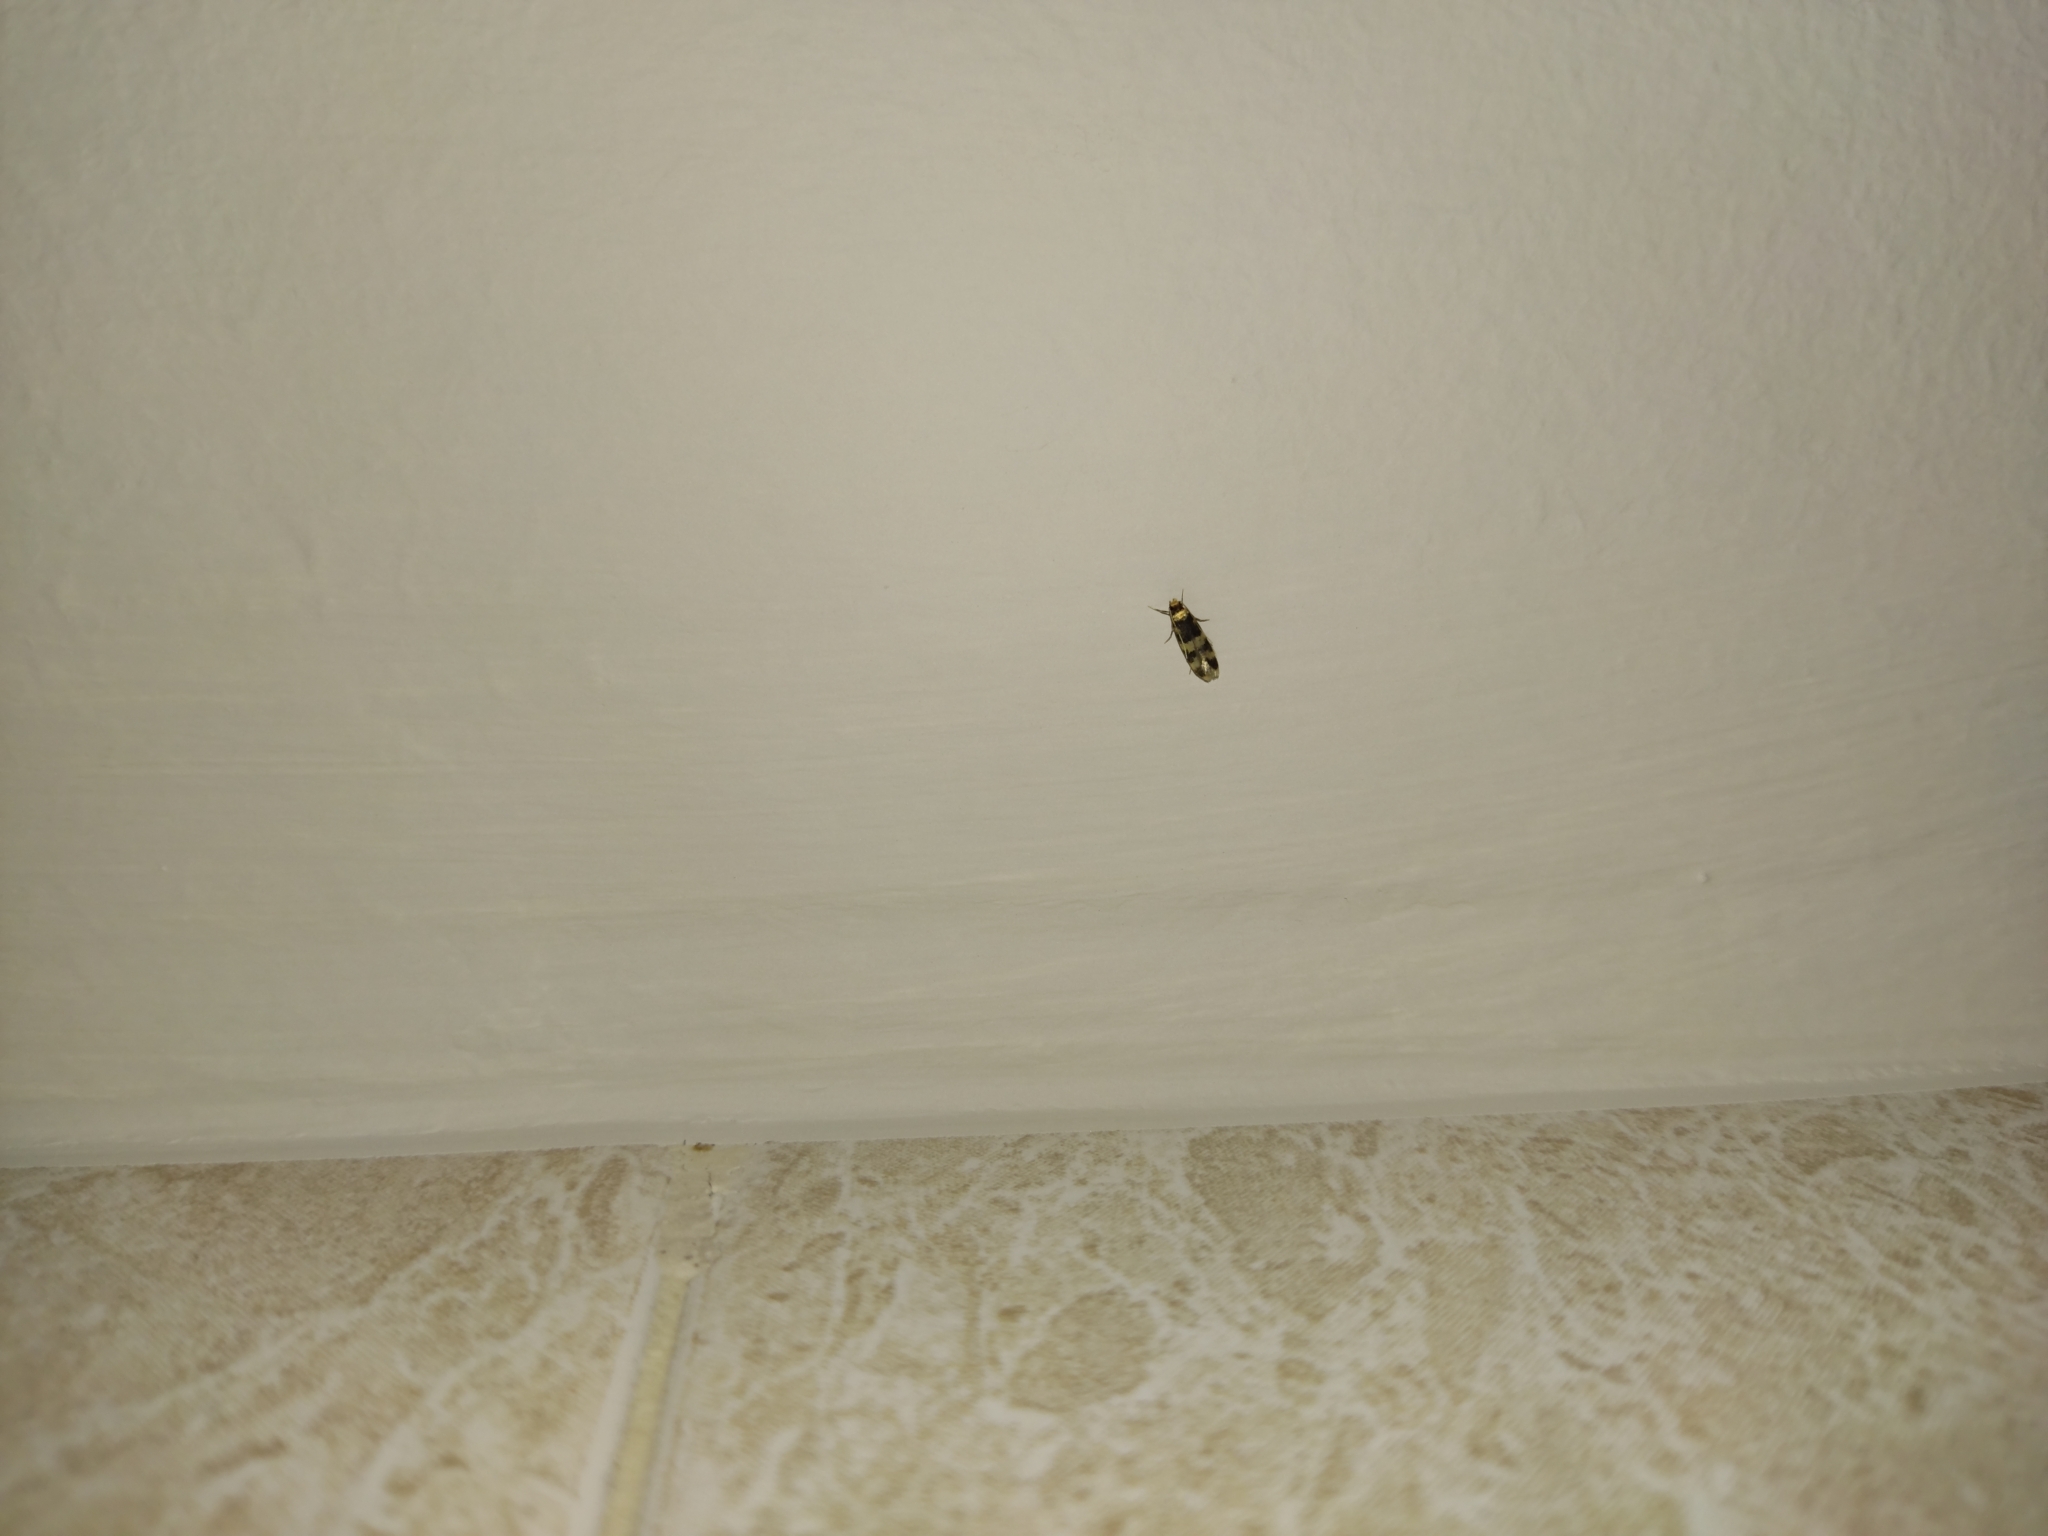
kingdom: Animalia
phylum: Arthropoda
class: Insecta
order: Lepidoptera
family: Autostichidae
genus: Oegoconia
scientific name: Oegoconia quadripuncta
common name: Four-spotted obscure
